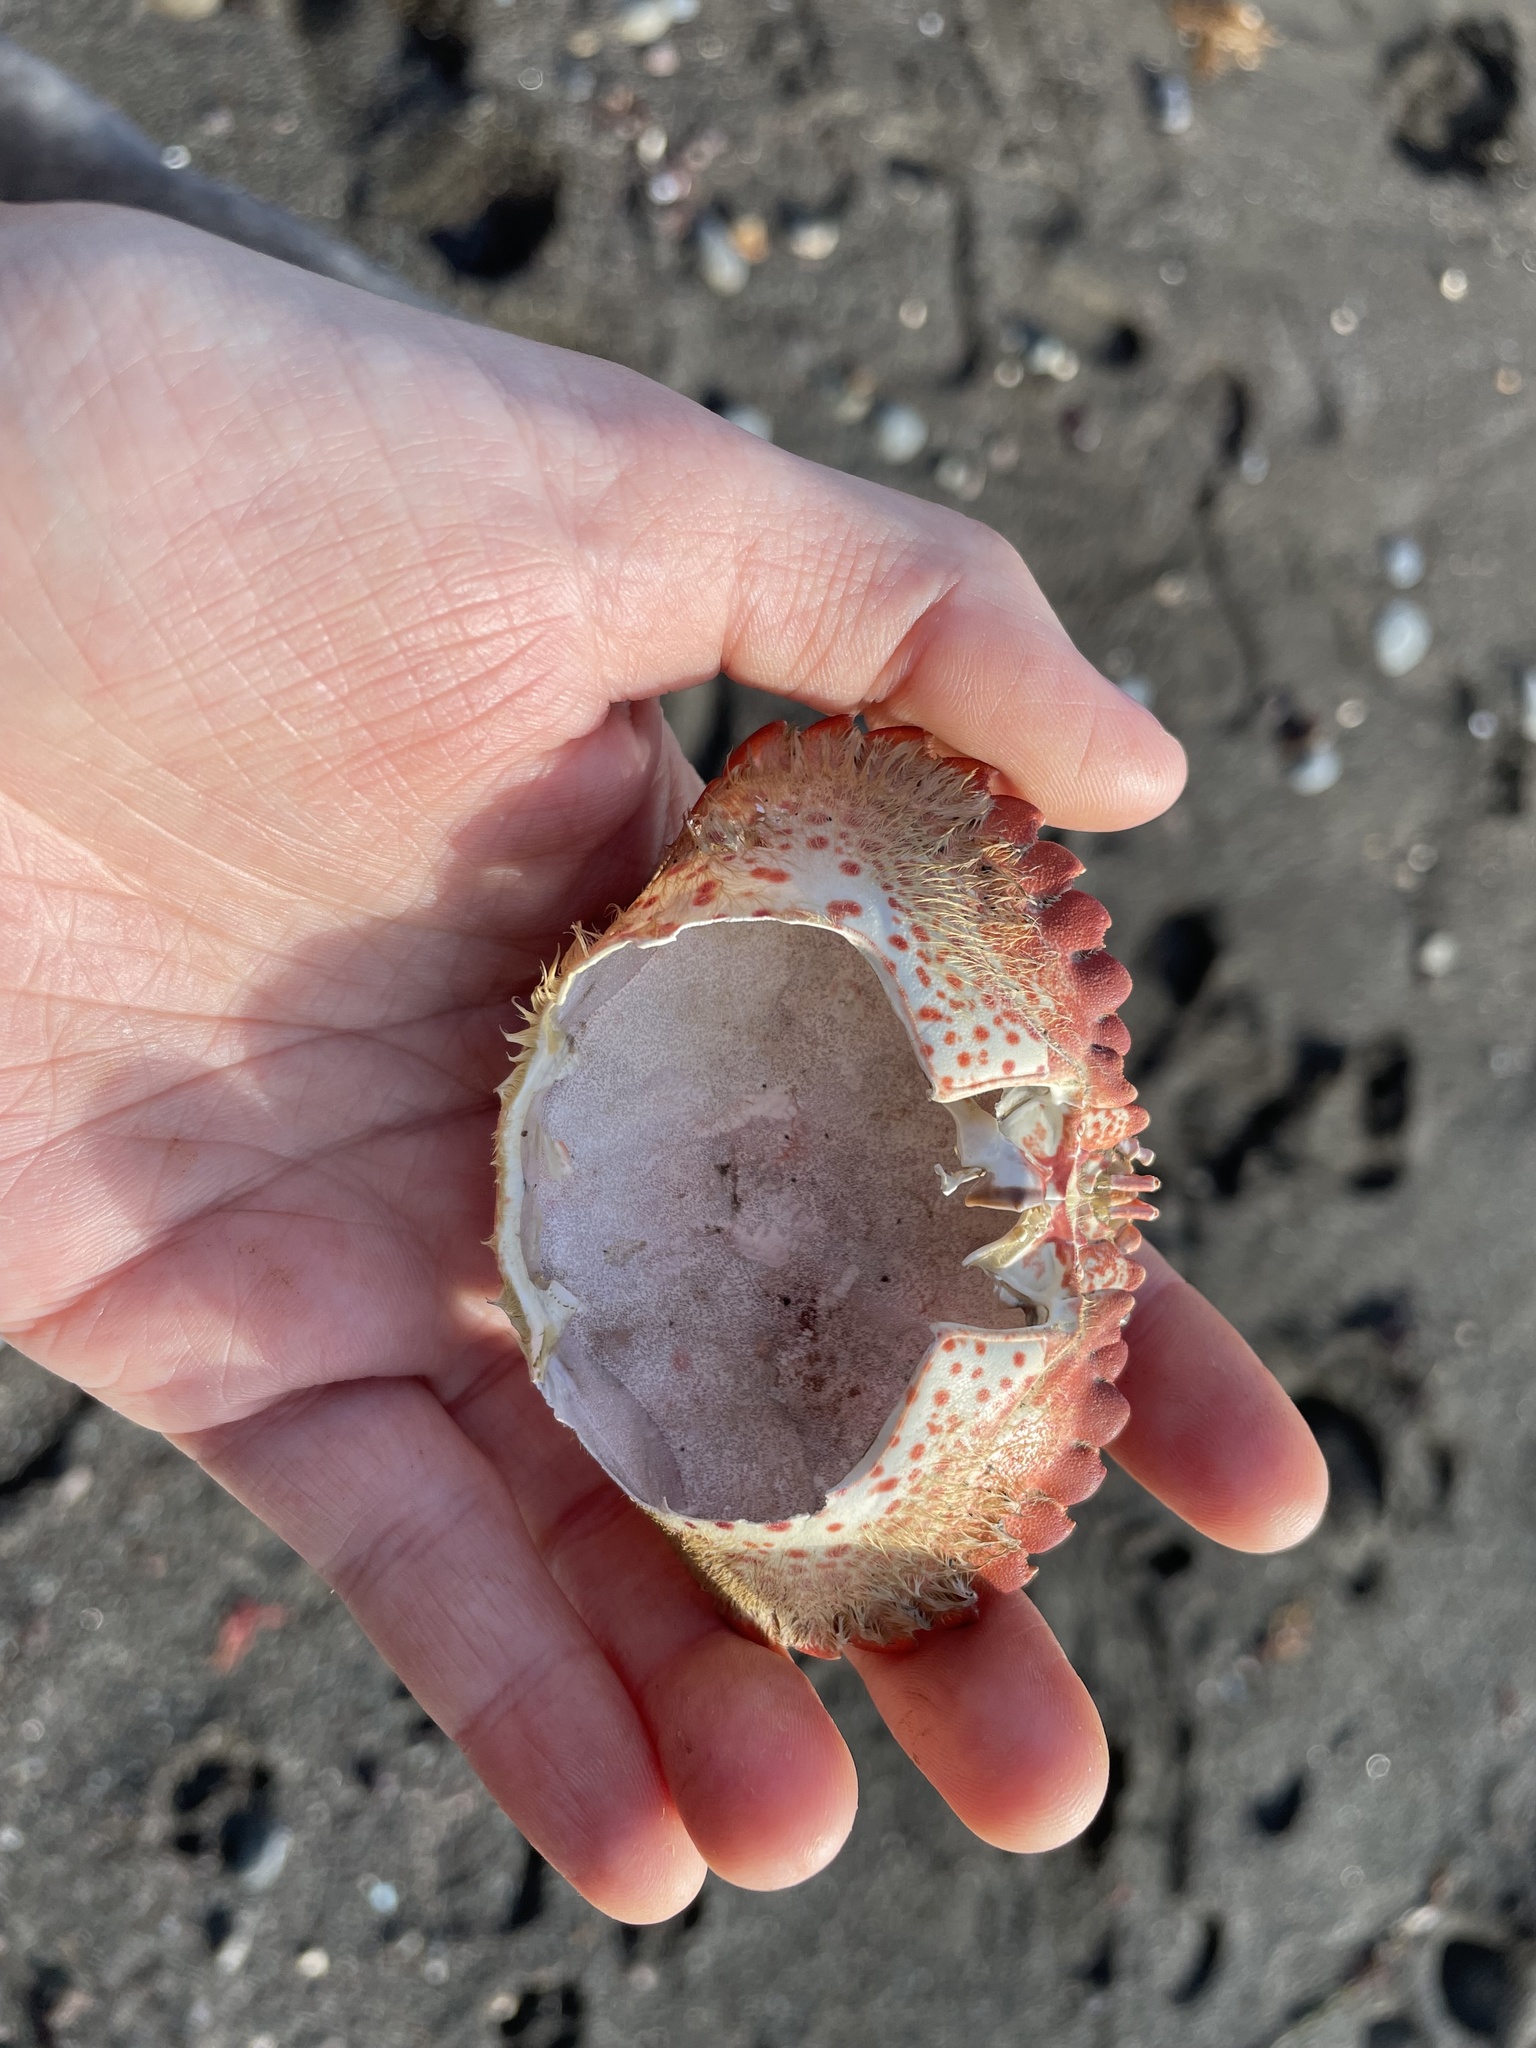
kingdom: Animalia
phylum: Arthropoda
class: Malacostraca
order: Decapoda
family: Cancridae
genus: Romaleon
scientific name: Romaleon antennarium
